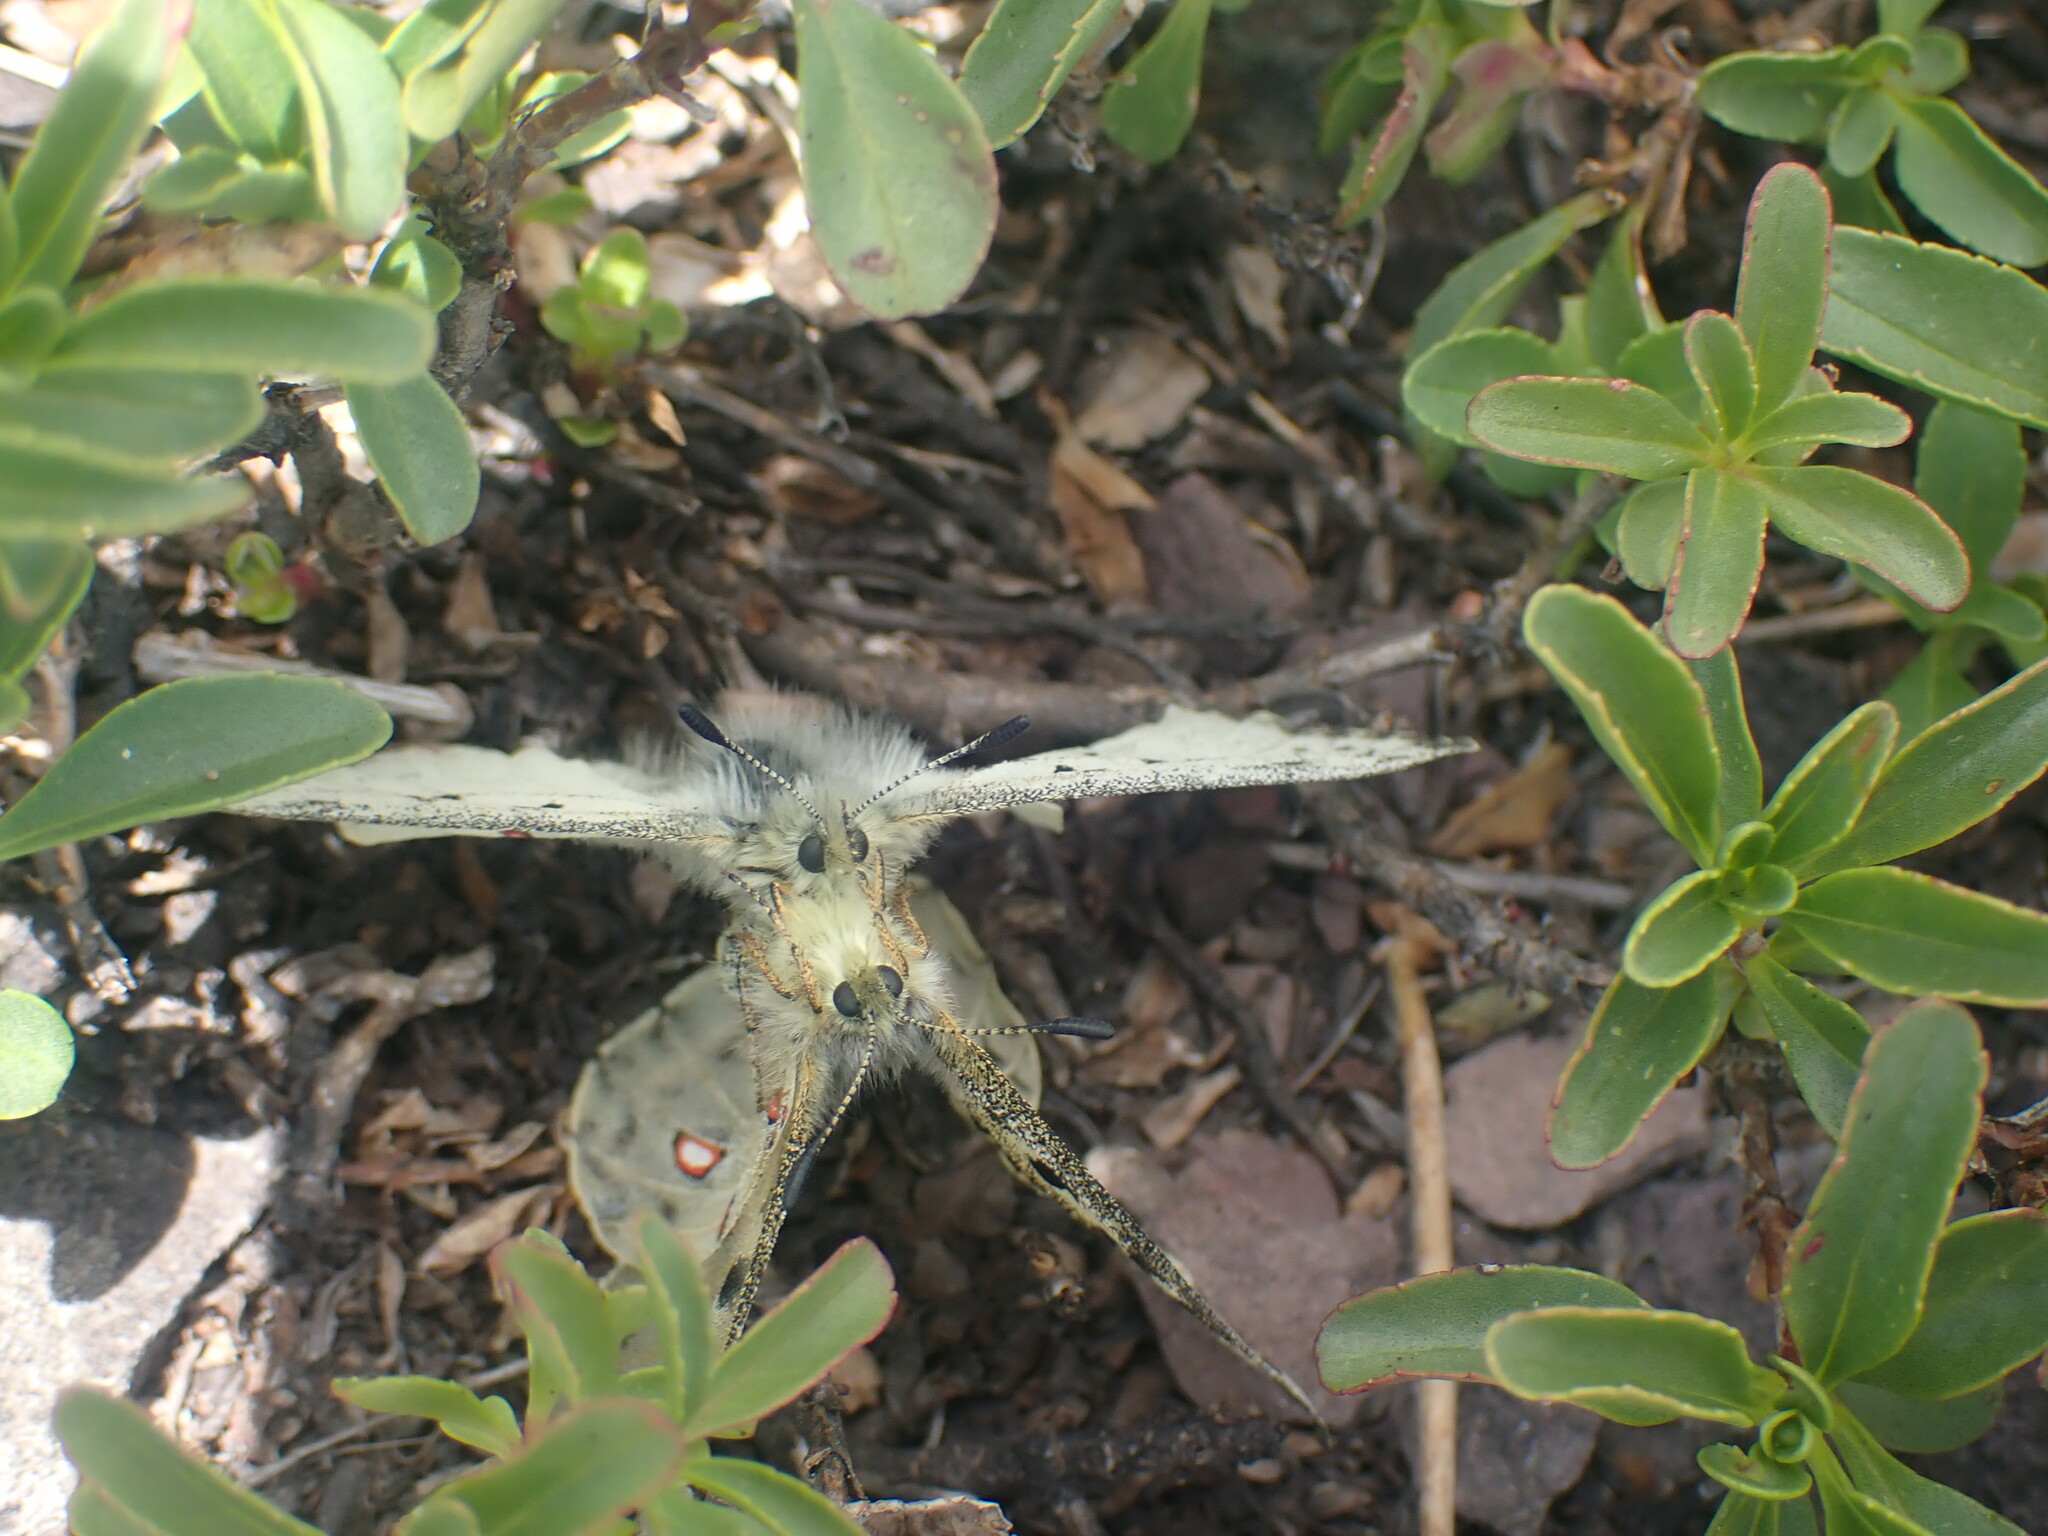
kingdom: Animalia
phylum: Arthropoda
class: Insecta
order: Lepidoptera
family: Papilionidae
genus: Parnassius
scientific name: Parnassius smintheus
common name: Mountain parnassian
